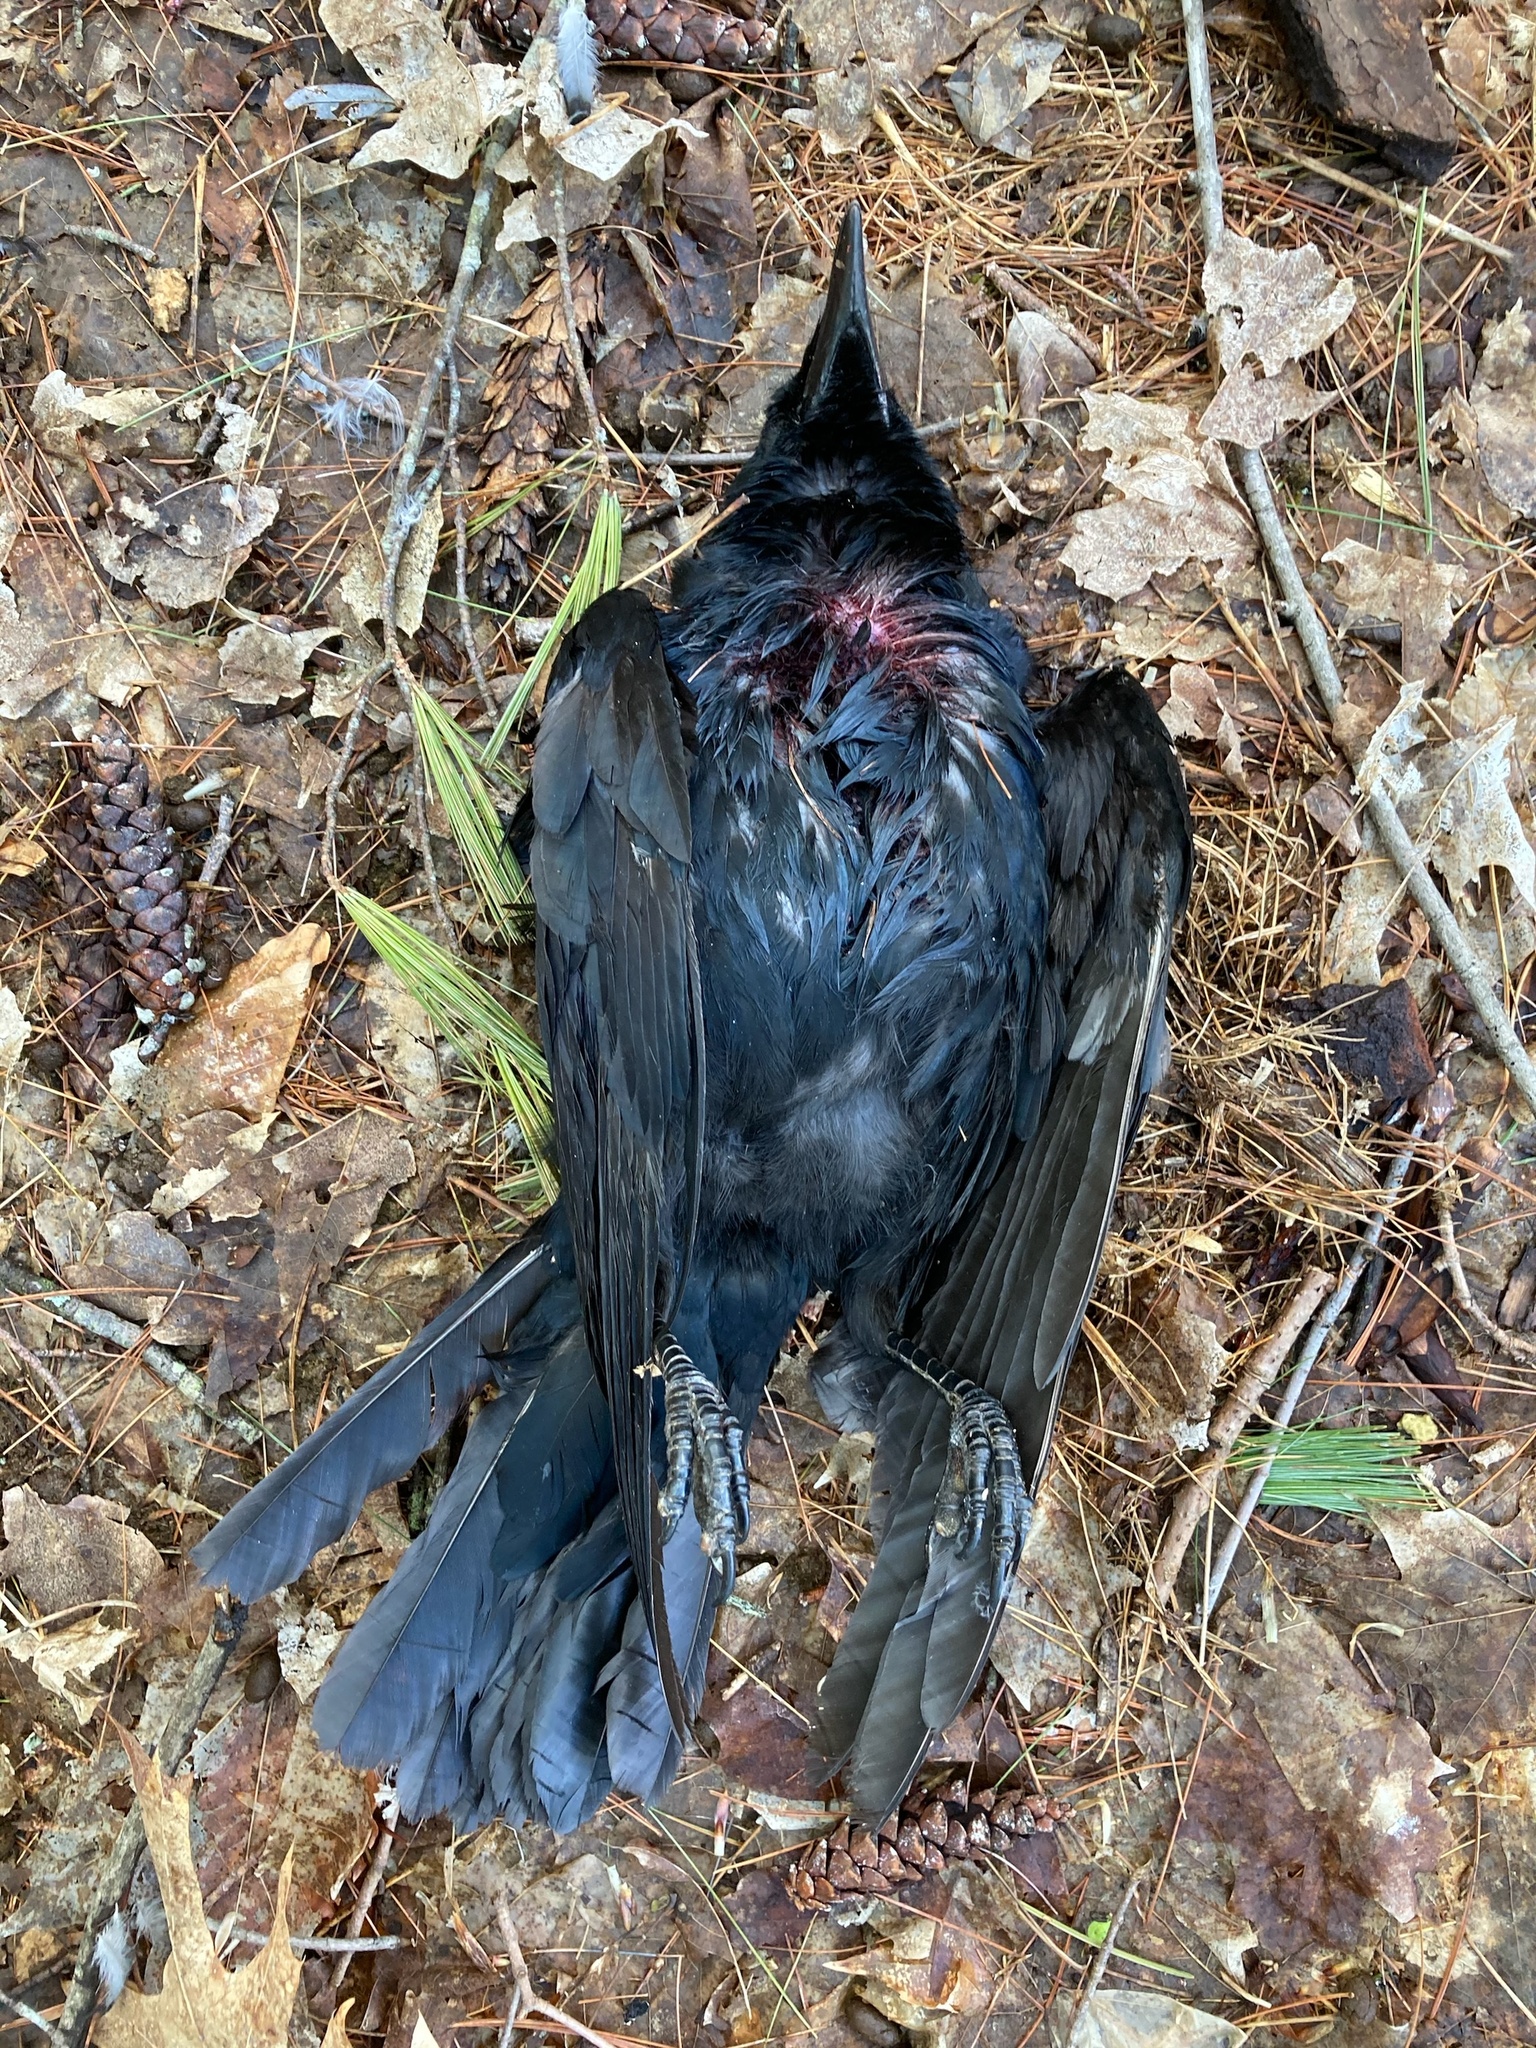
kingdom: Animalia
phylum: Chordata
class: Aves
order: Passeriformes
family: Corvidae
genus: Corvus
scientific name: Corvus brachyrhynchos
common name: American crow
